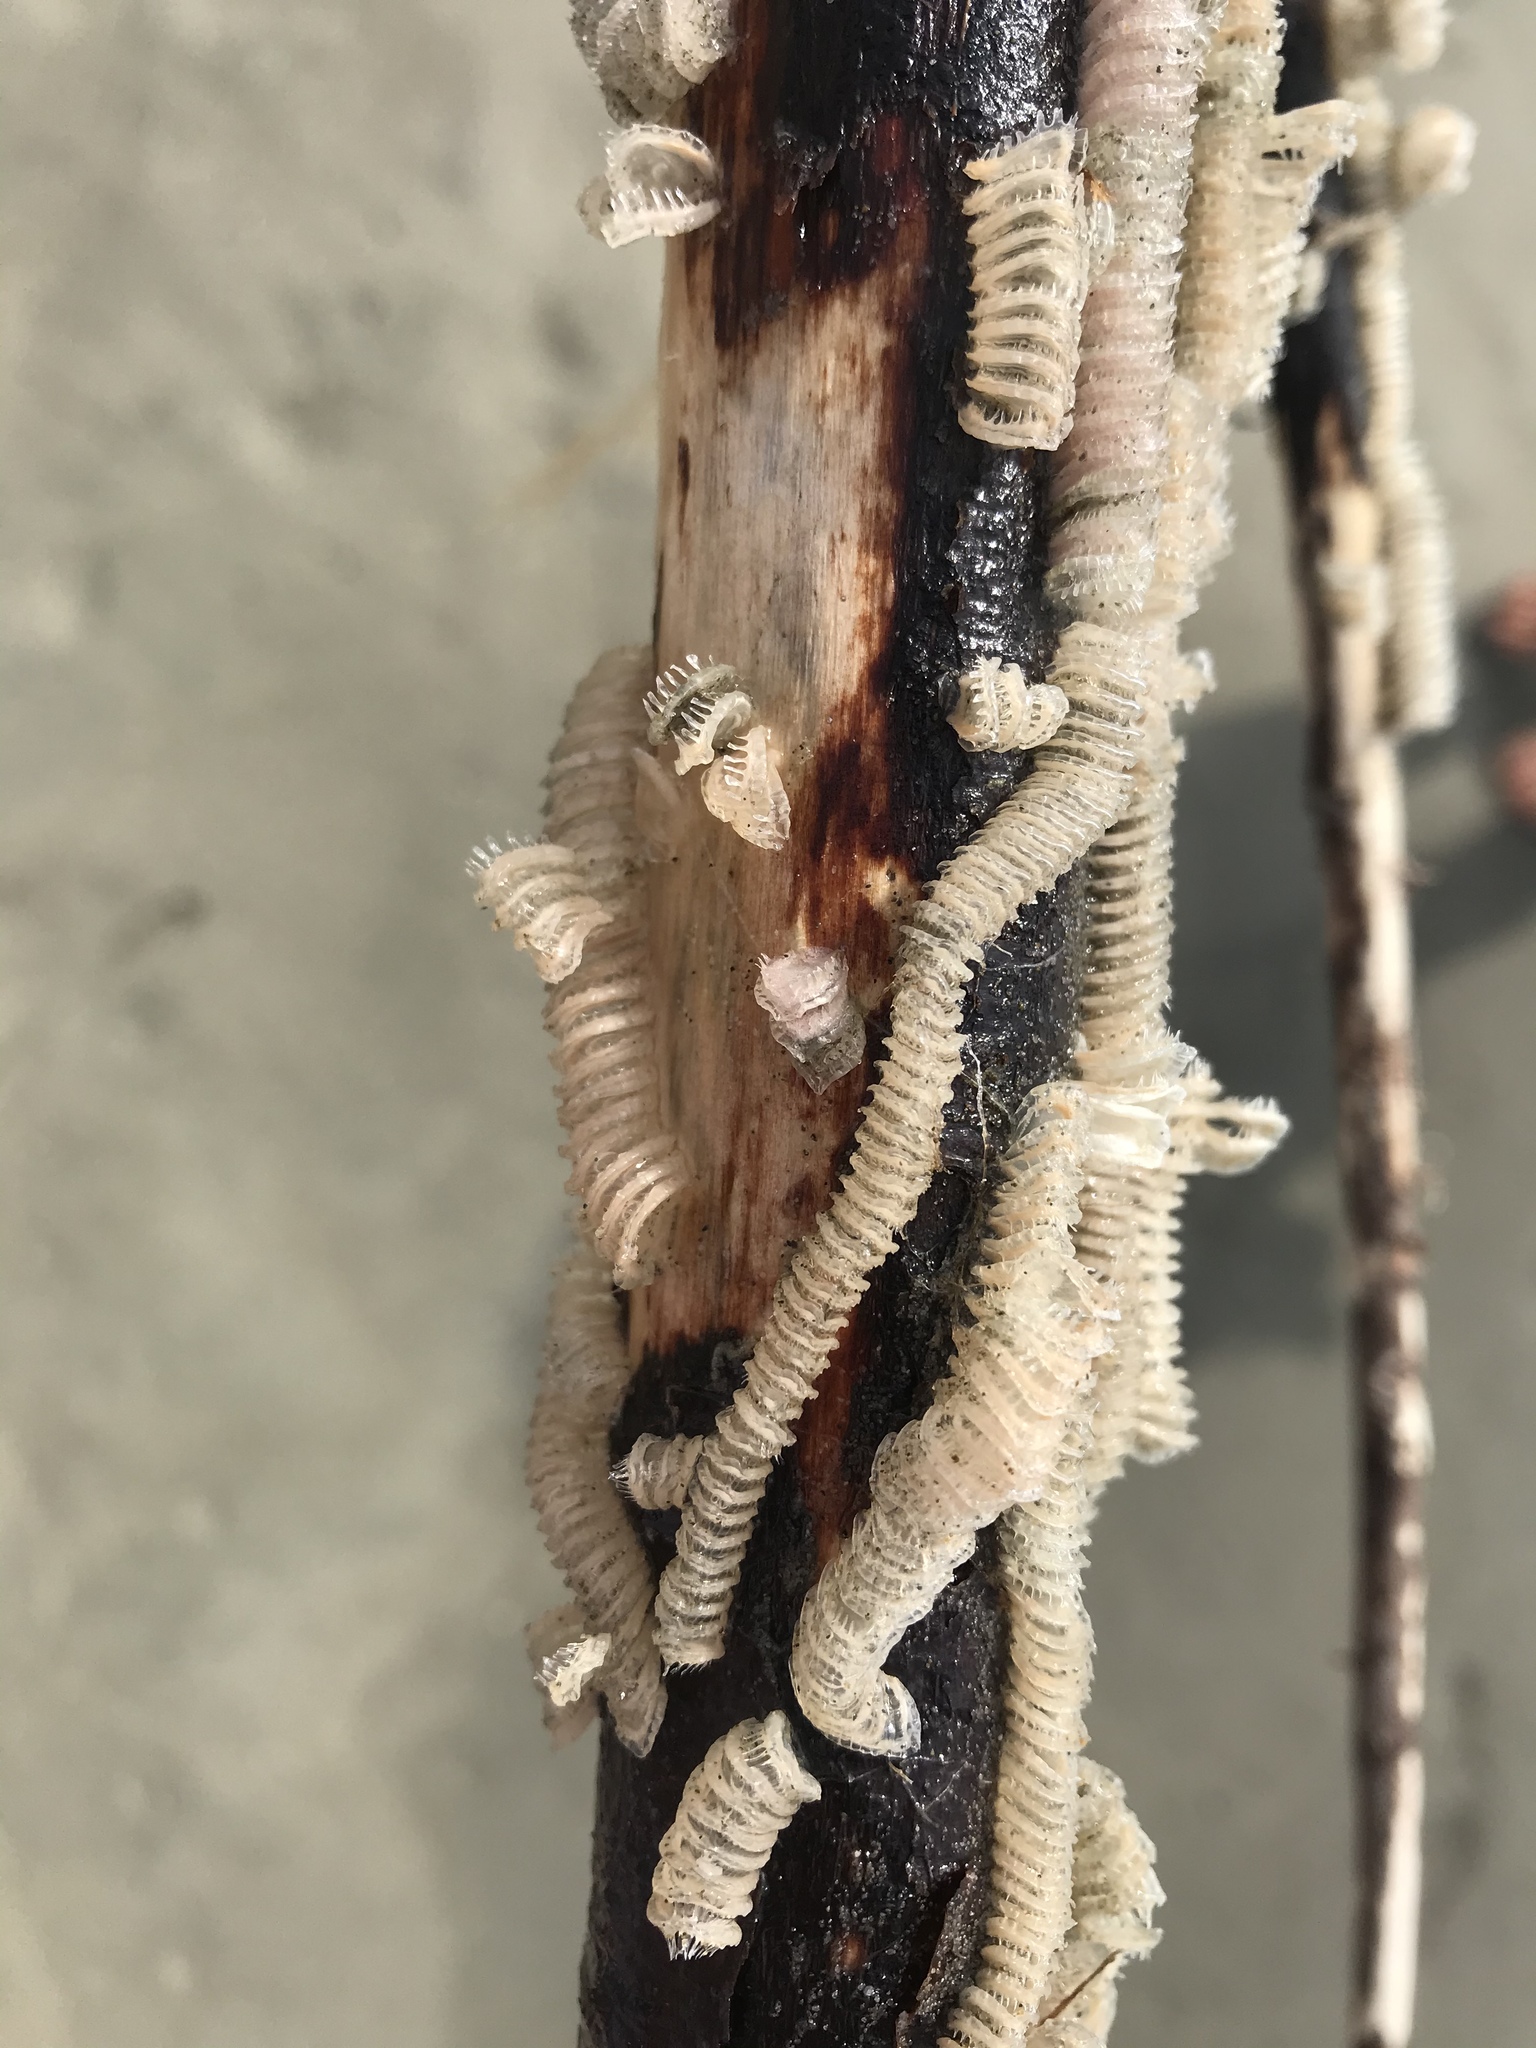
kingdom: Animalia
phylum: Mollusca
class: Gastropoda
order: Neogastropoda
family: Muricidae
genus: Poirieria
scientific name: Poirieria zelandica
